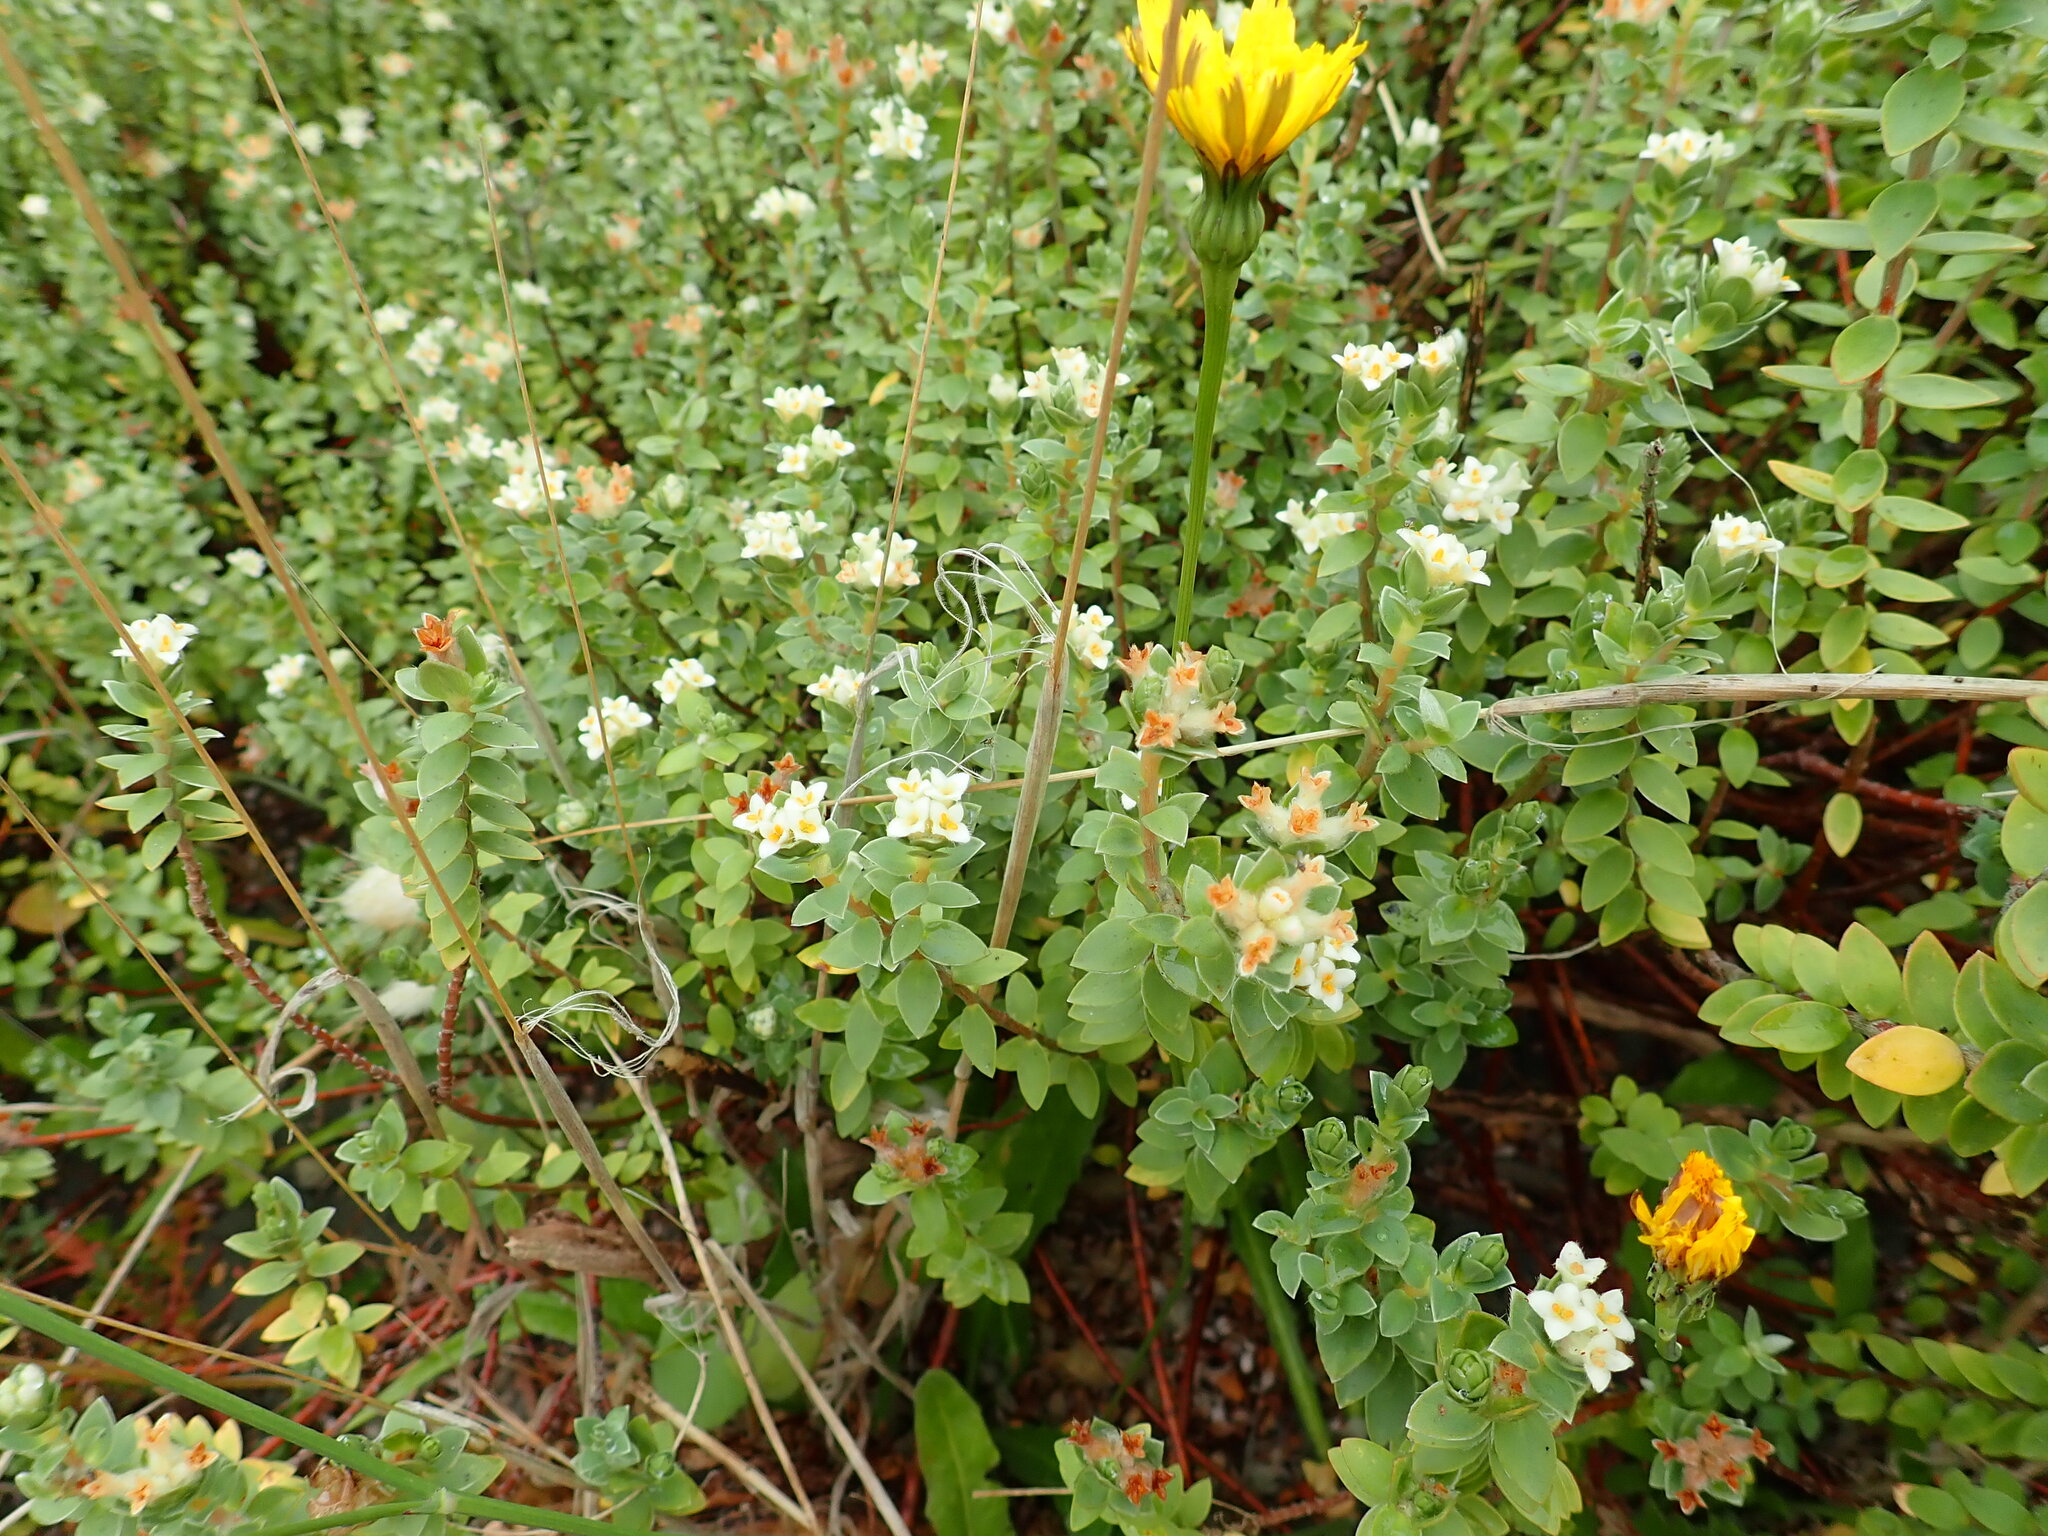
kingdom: Plantae
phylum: Tracheophyta
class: Magnoliopsida
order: Malvales
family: Thymelaeaceae
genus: Pimelea
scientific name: Pimelea villosa
